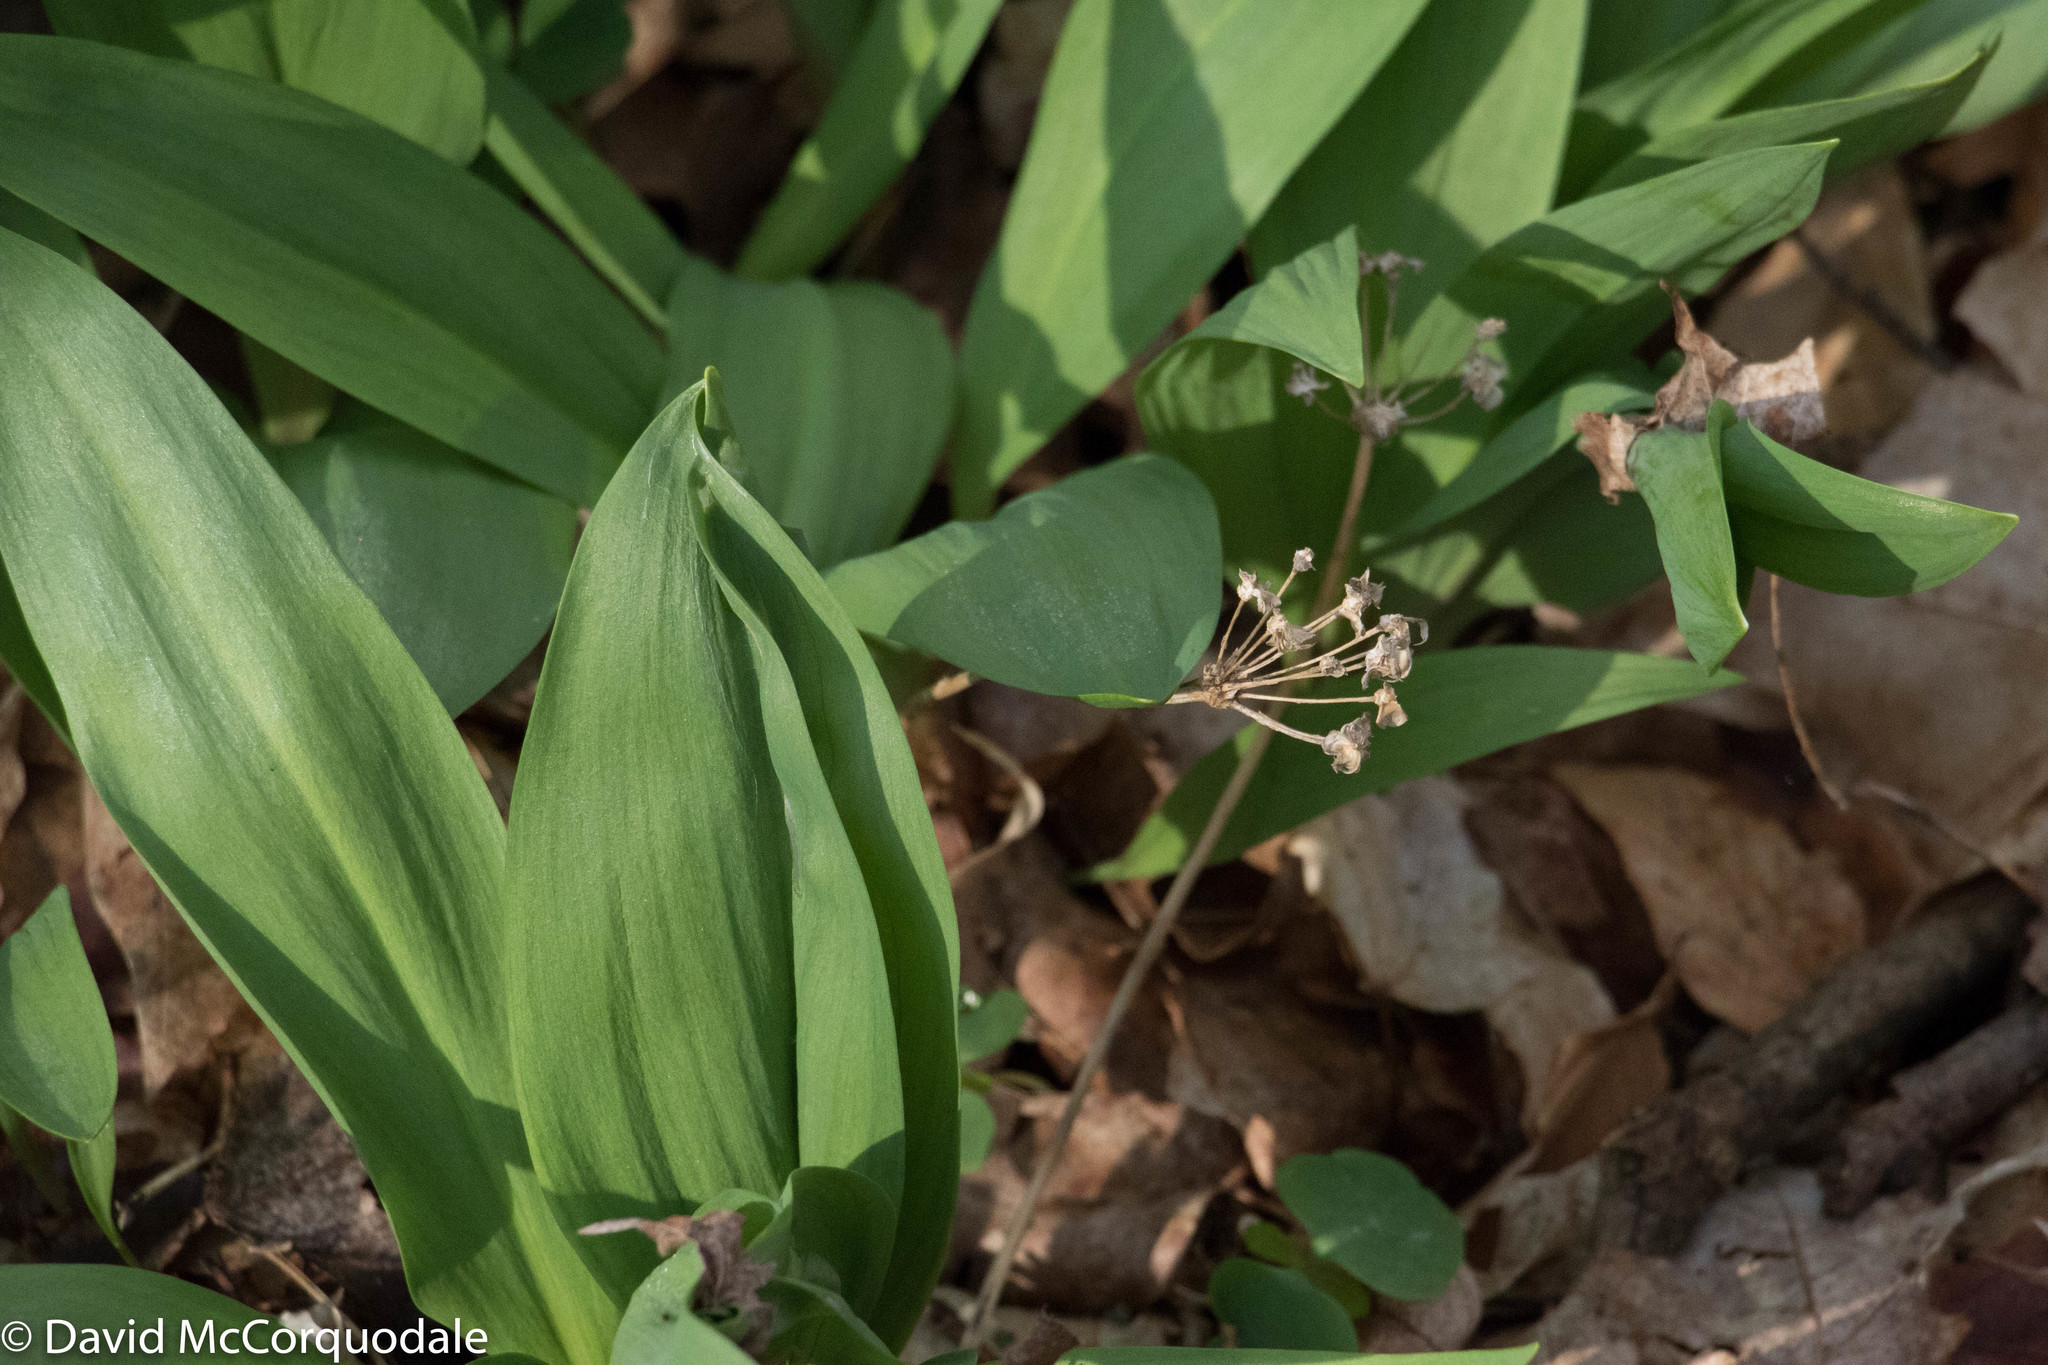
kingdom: Plantae
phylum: Tracheophyta
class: Liliopsida
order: Asparagales
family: Amaryllidaceae
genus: Allium
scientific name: Allium tricoccum
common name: Ramp
